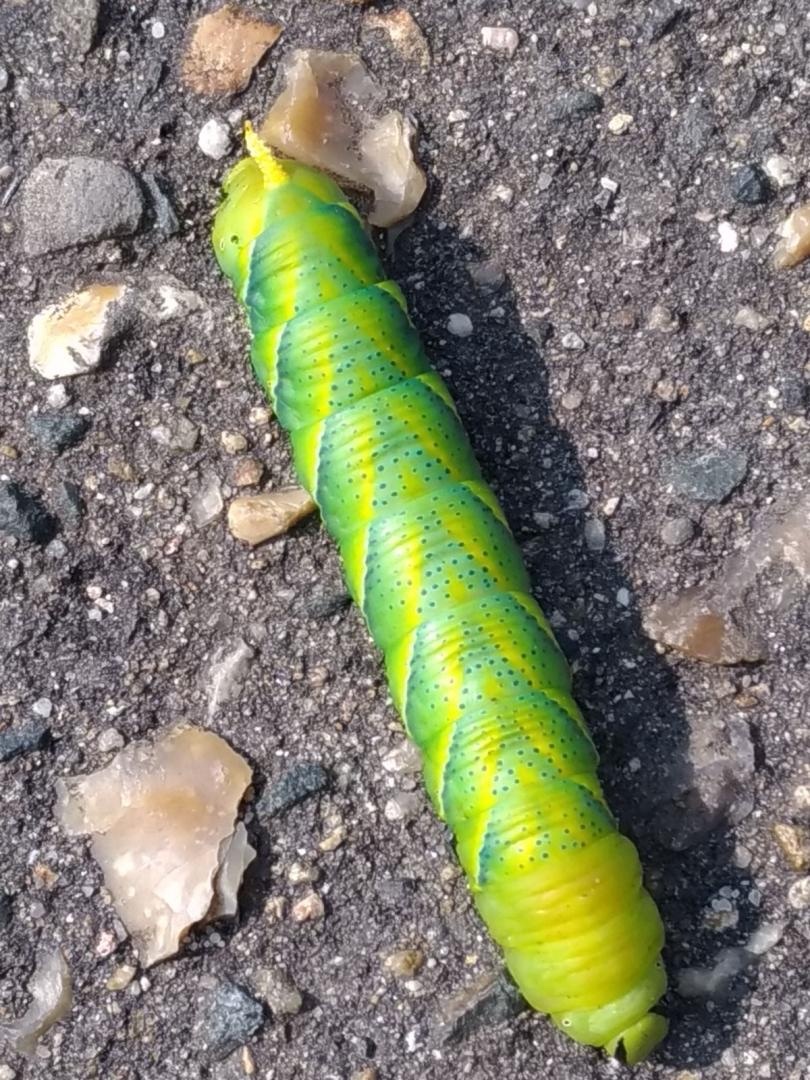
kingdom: Animalia
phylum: Arthropoda
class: Insecta
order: Lepidoptera
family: Sphingidae
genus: Acherontia
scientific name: Acherontia atropos
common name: Death's-head hawk moth
